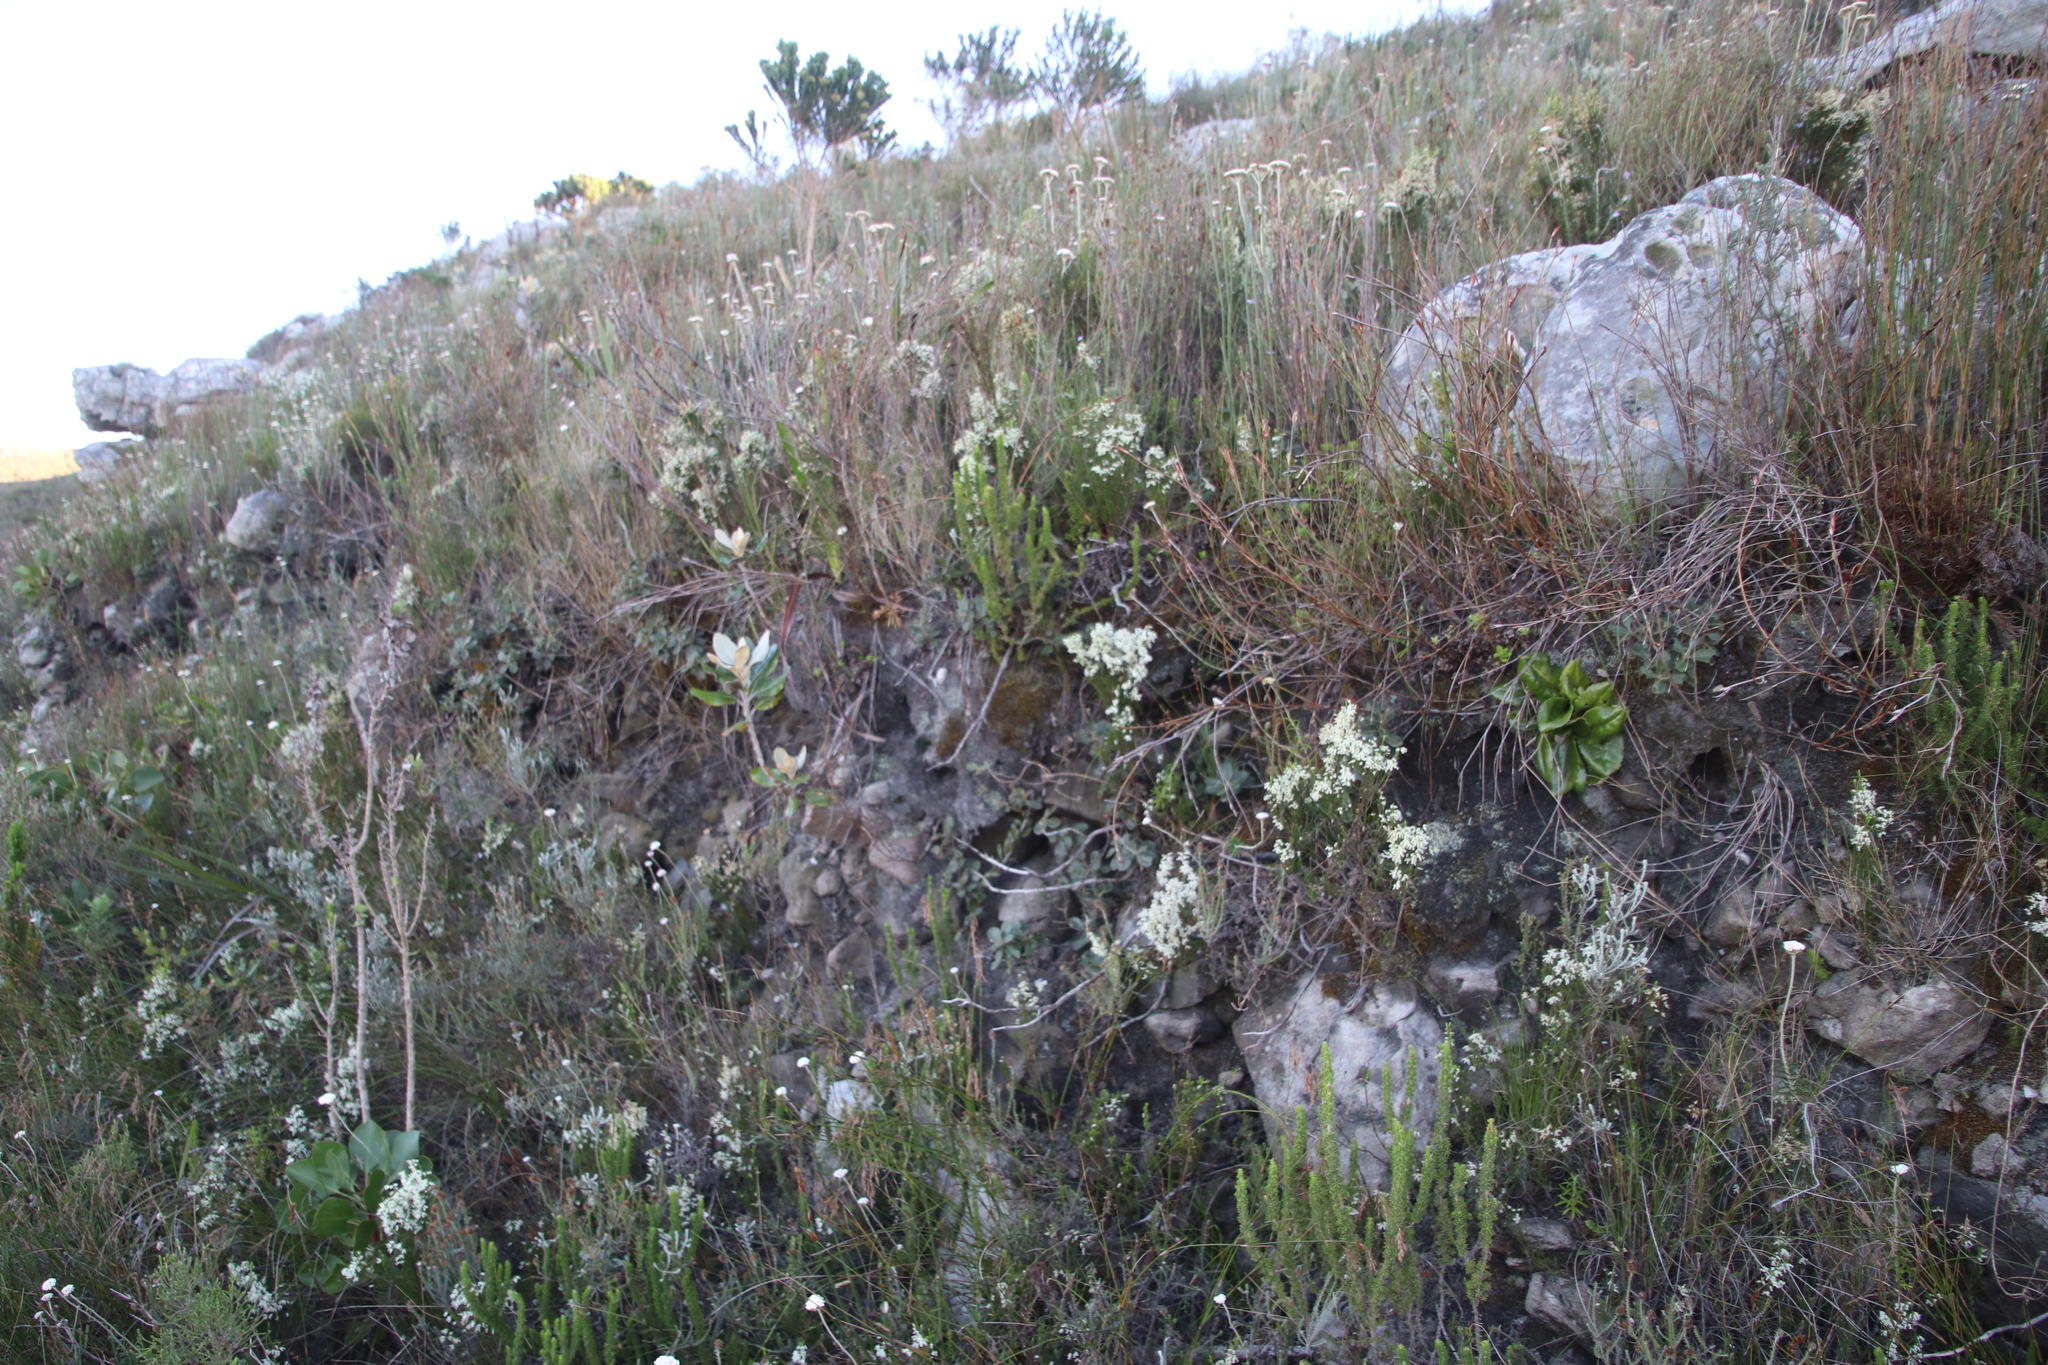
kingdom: Plantae
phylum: Tracheophyta
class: Magnoliopsida
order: Ericales
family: Ericaceae
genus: Erica
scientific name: Erica lutea
